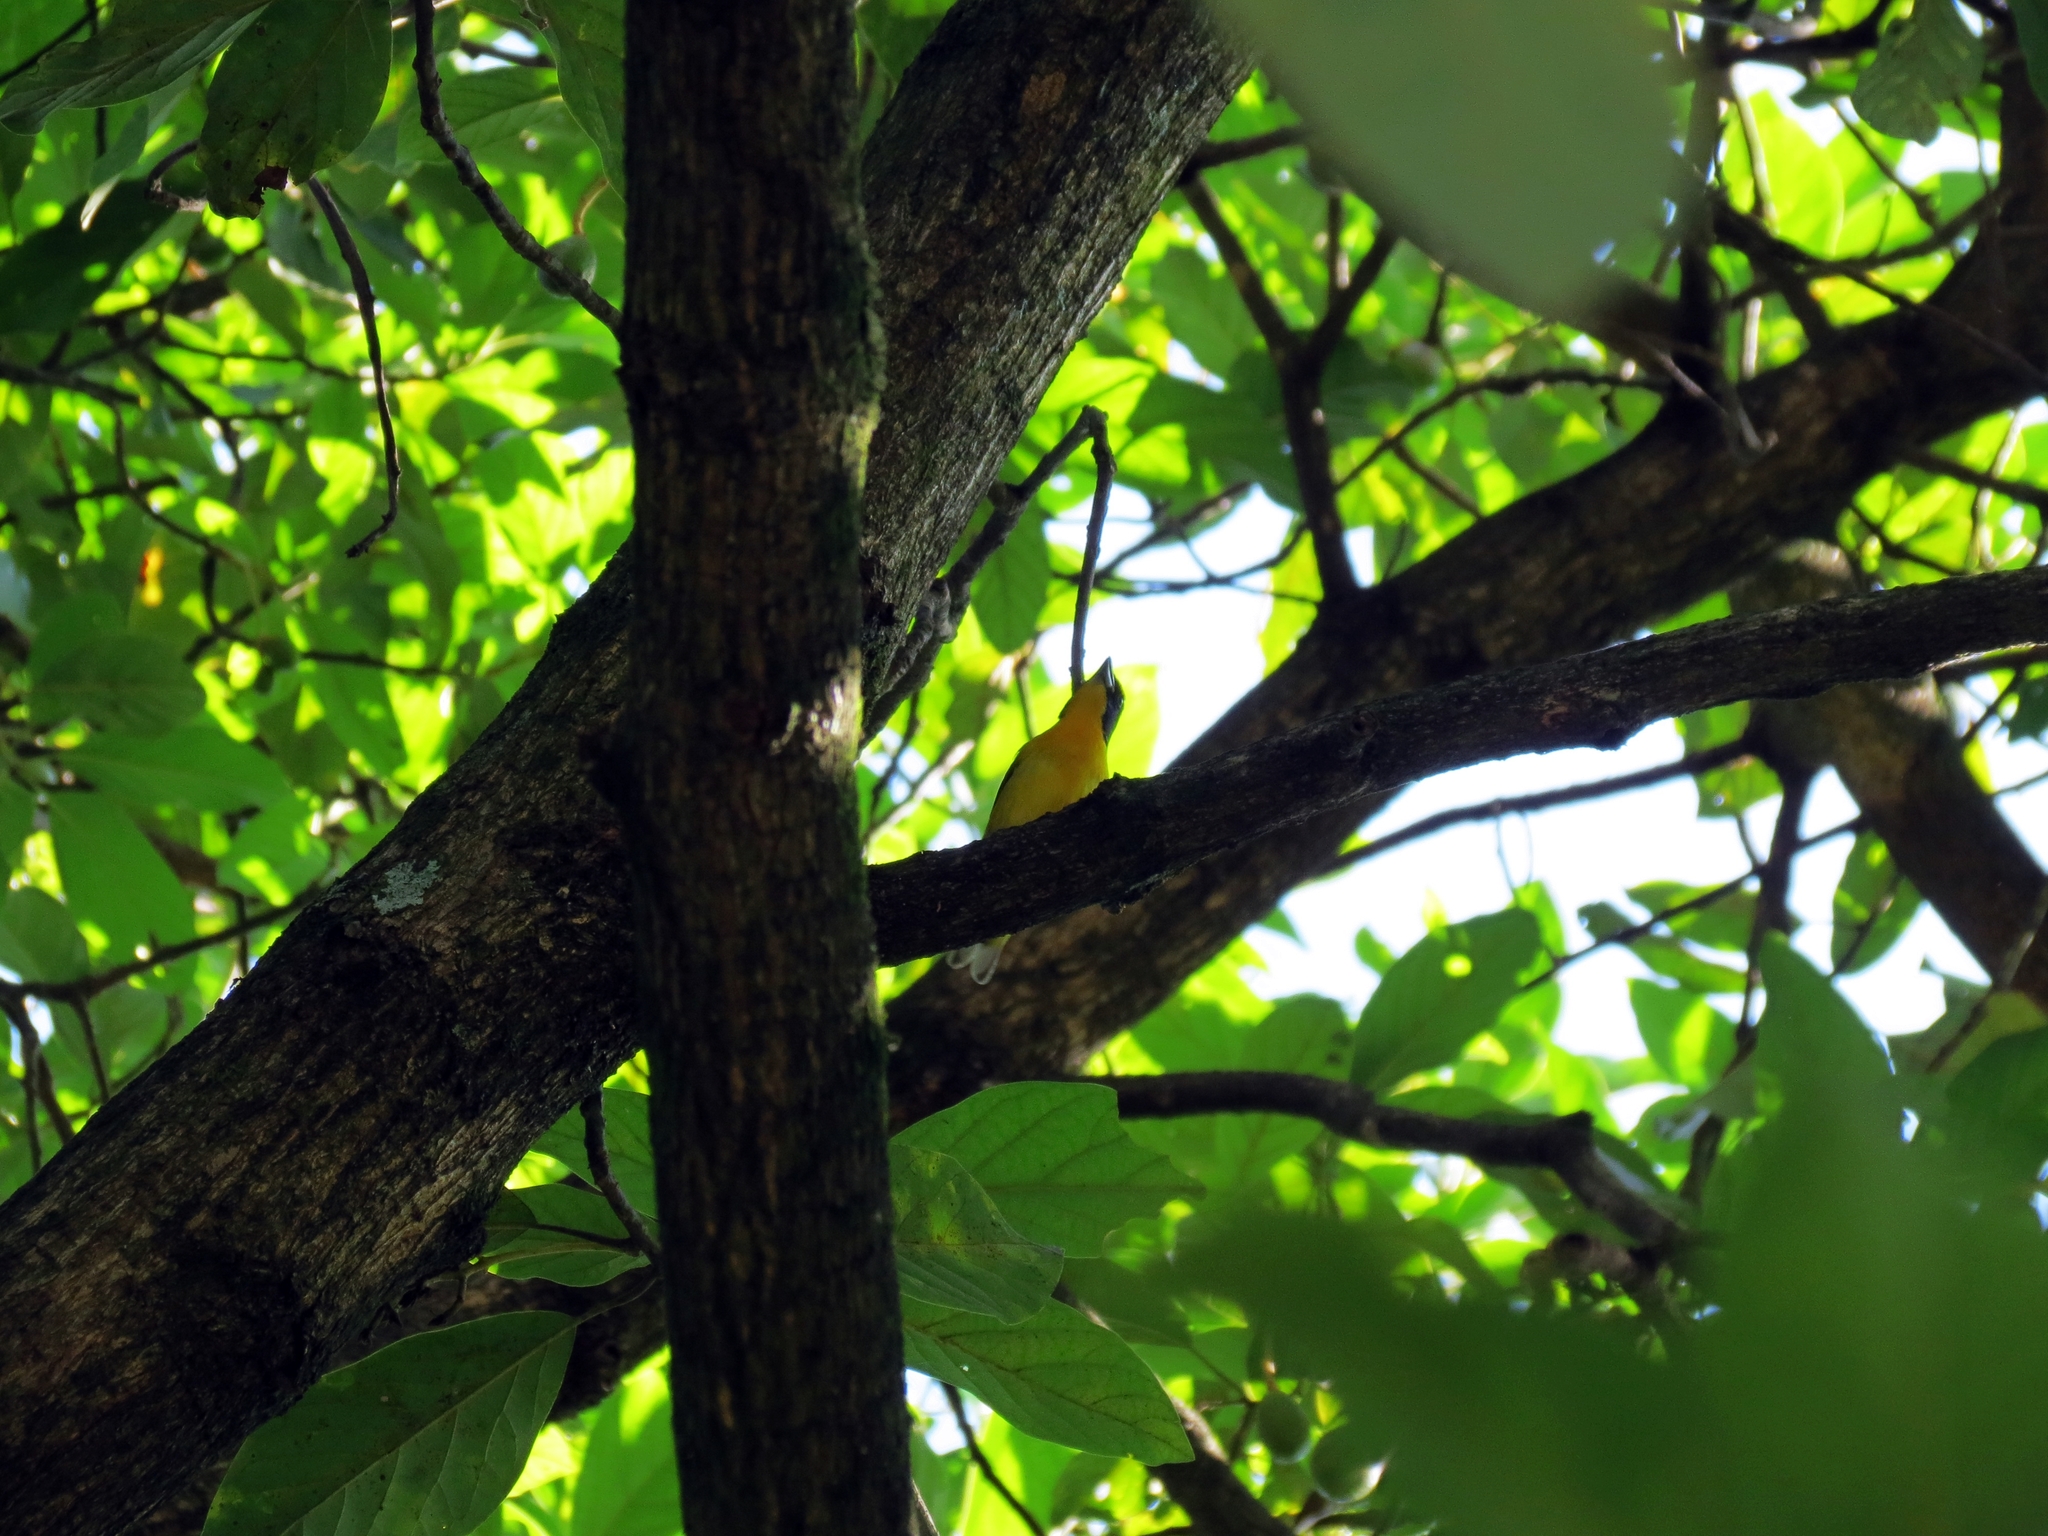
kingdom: Animalia
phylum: Chordata
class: Aves
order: Passeriformes
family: Fringillidae
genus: Euphonia
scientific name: Euphonia laniirostris
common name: Thick-billed euphonia
